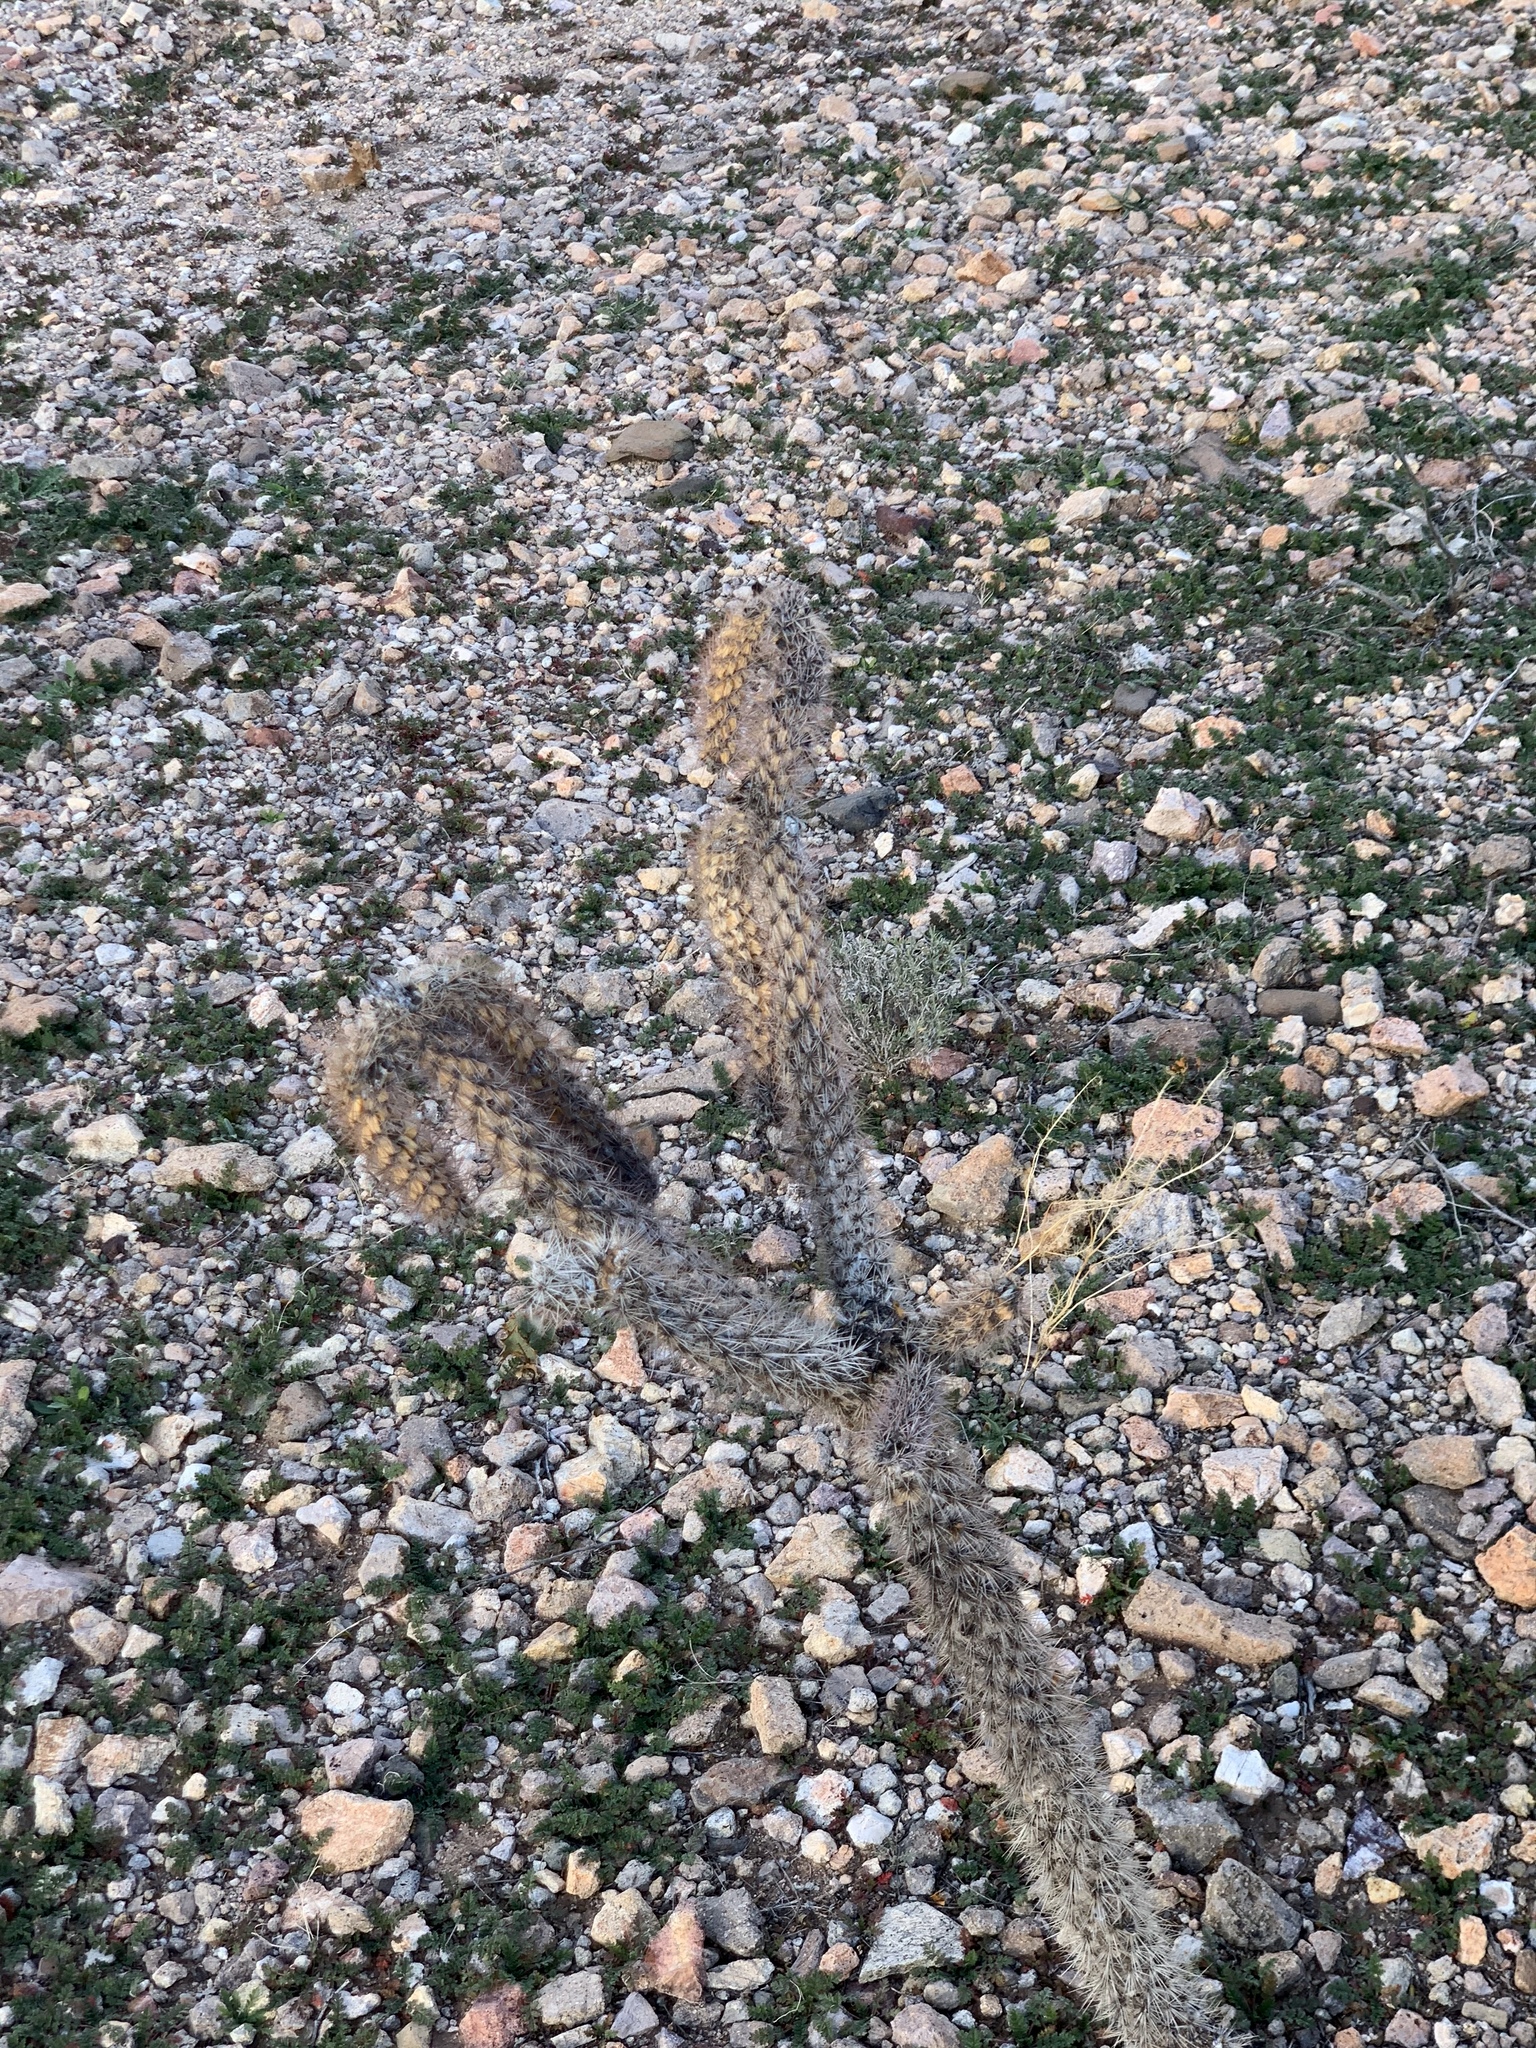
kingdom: Plantae
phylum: Tracheophyta
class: Magnoliopsida
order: Caryophyllales
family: Cactaceae
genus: Cylindropuntia
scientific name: Cylindropuntia imbricata
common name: Candelabrum cactus
